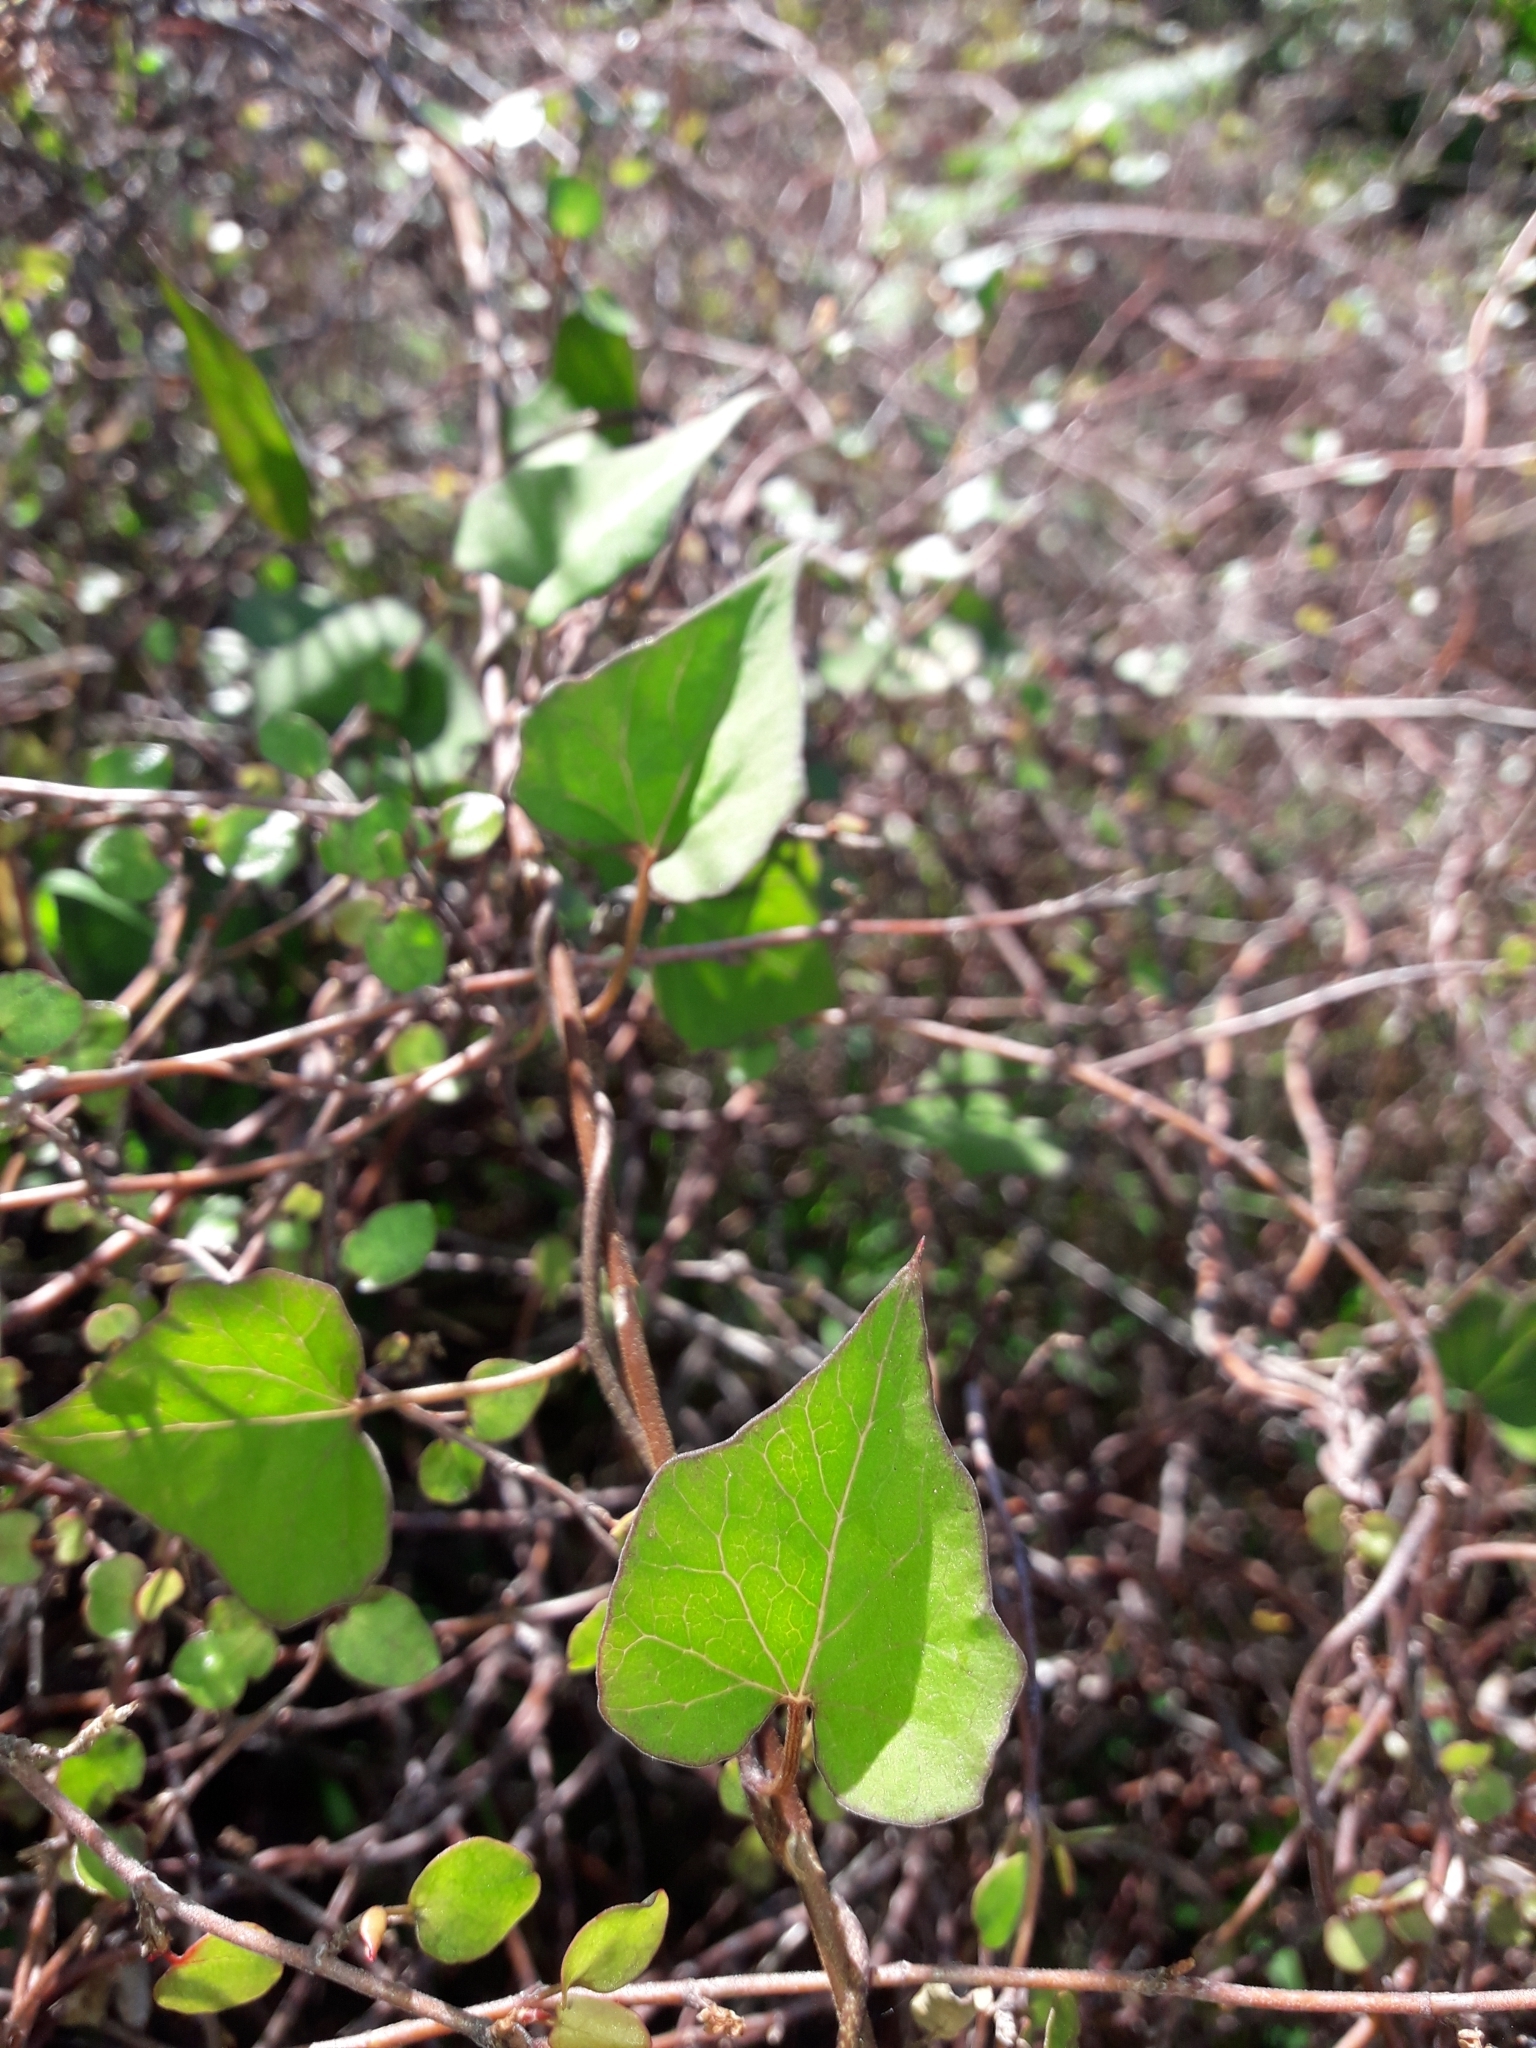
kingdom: Plantae
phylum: Tracheophyta
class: Magnoliopsida
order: Solanales
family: Convolvulaceae
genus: Calystegia
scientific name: Calystegia tuguriorum
